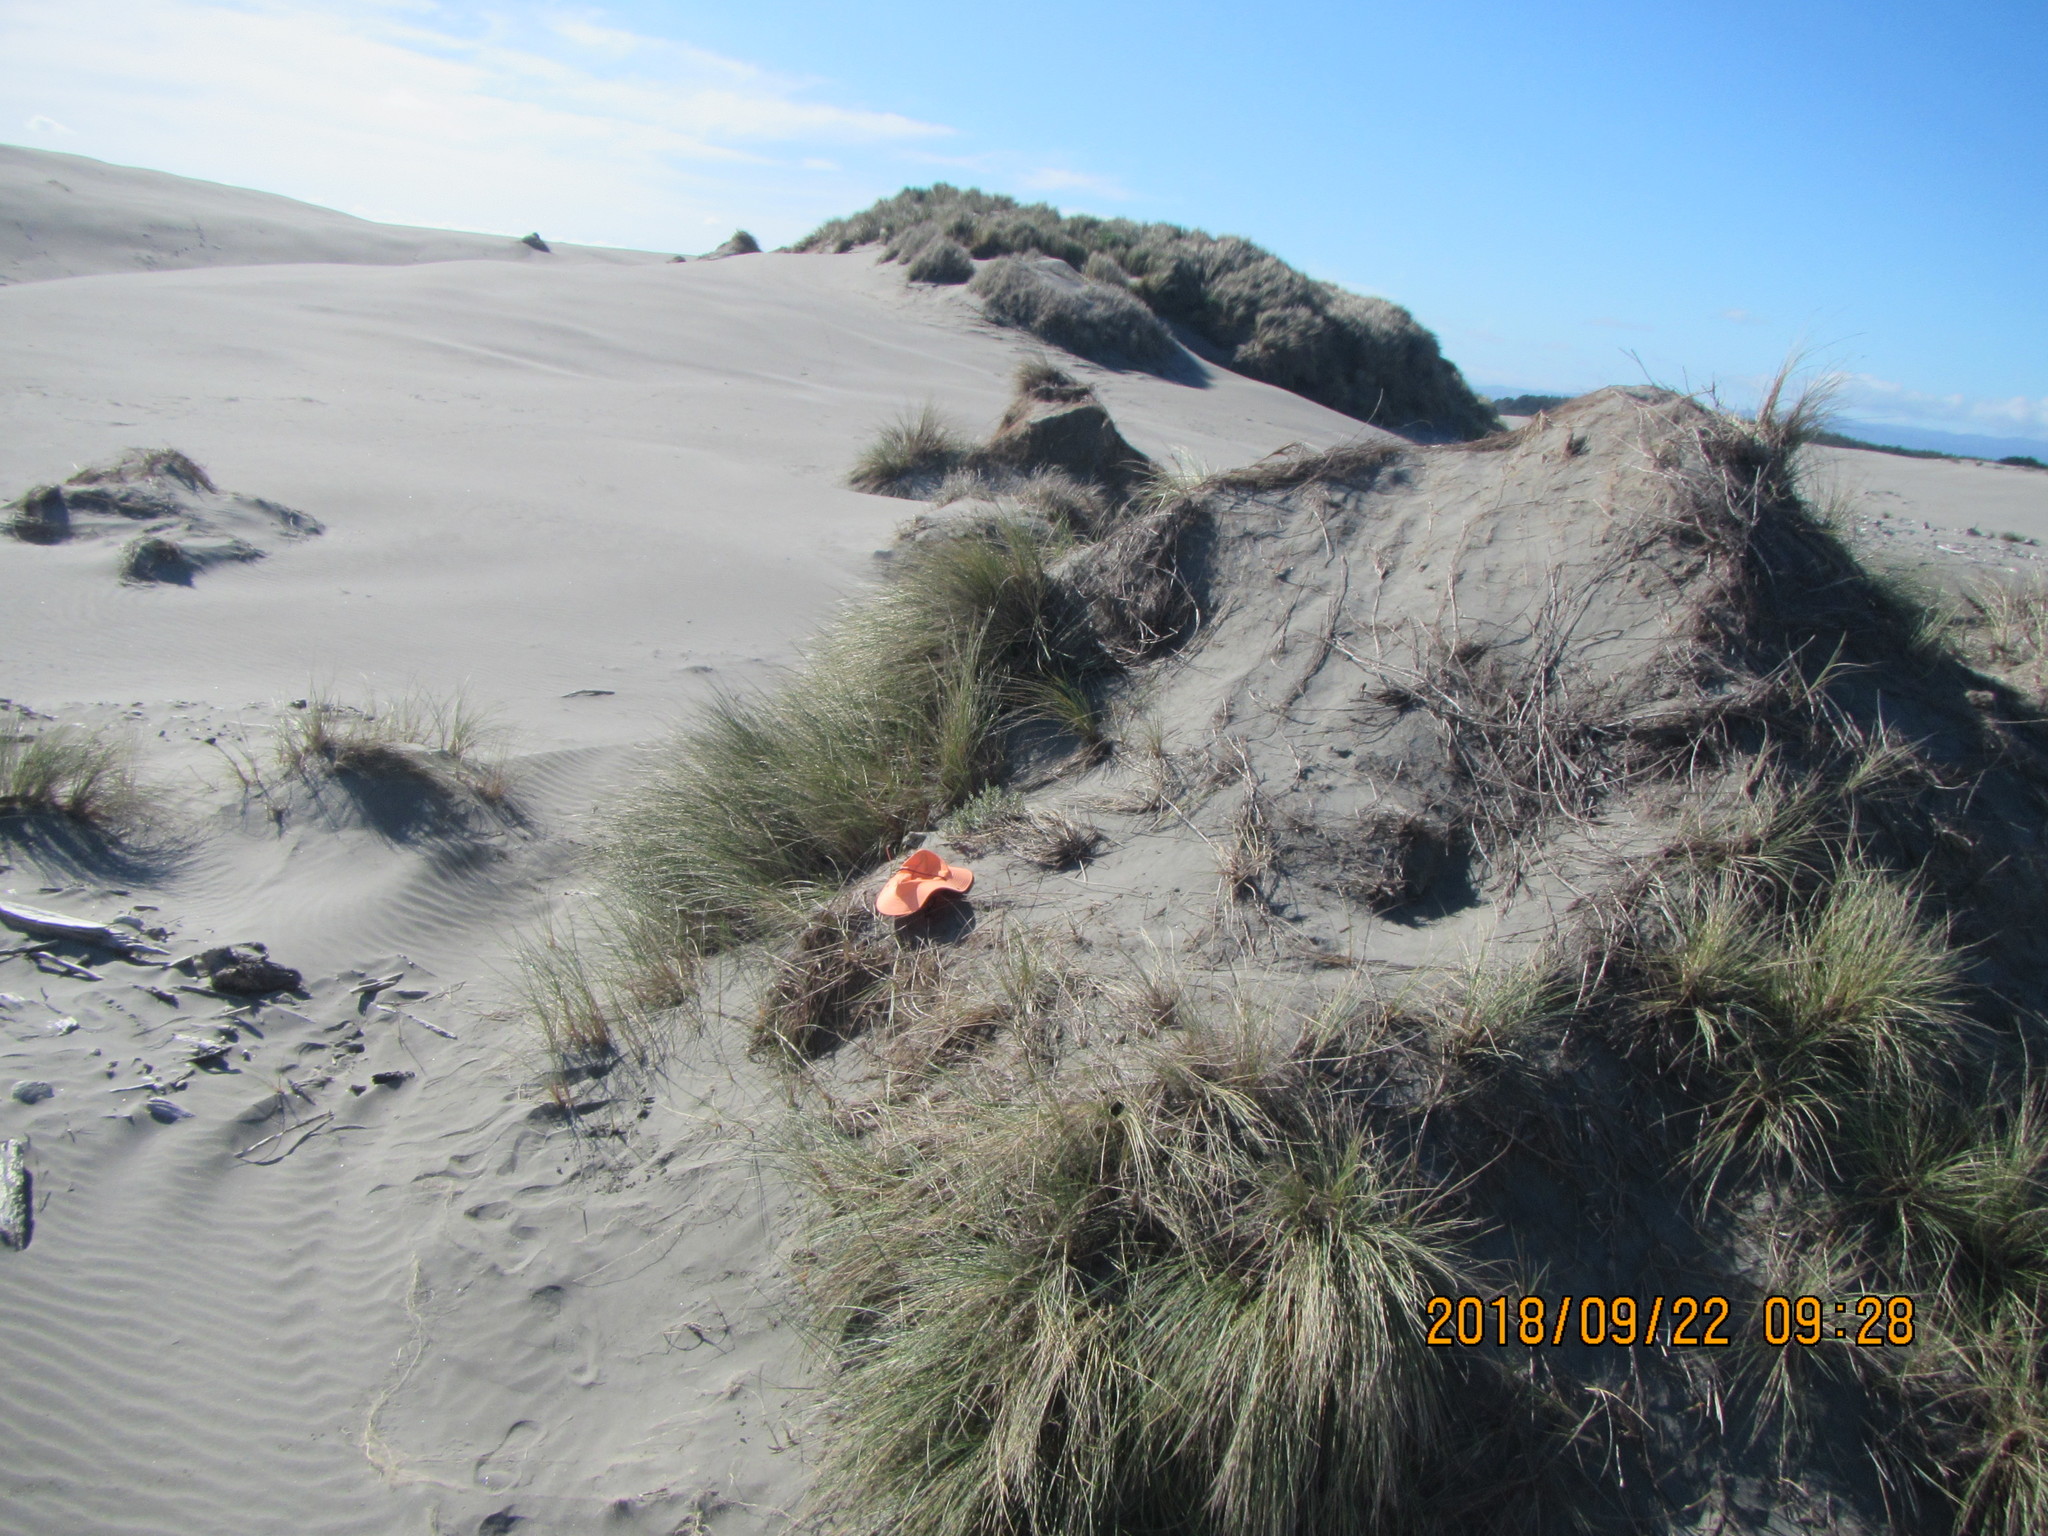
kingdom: Plantae
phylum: Tracheophyta
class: Magnoliopsida
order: Malvales
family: Thymelaeaceae
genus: Pimelea
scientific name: Pimelea villosa
